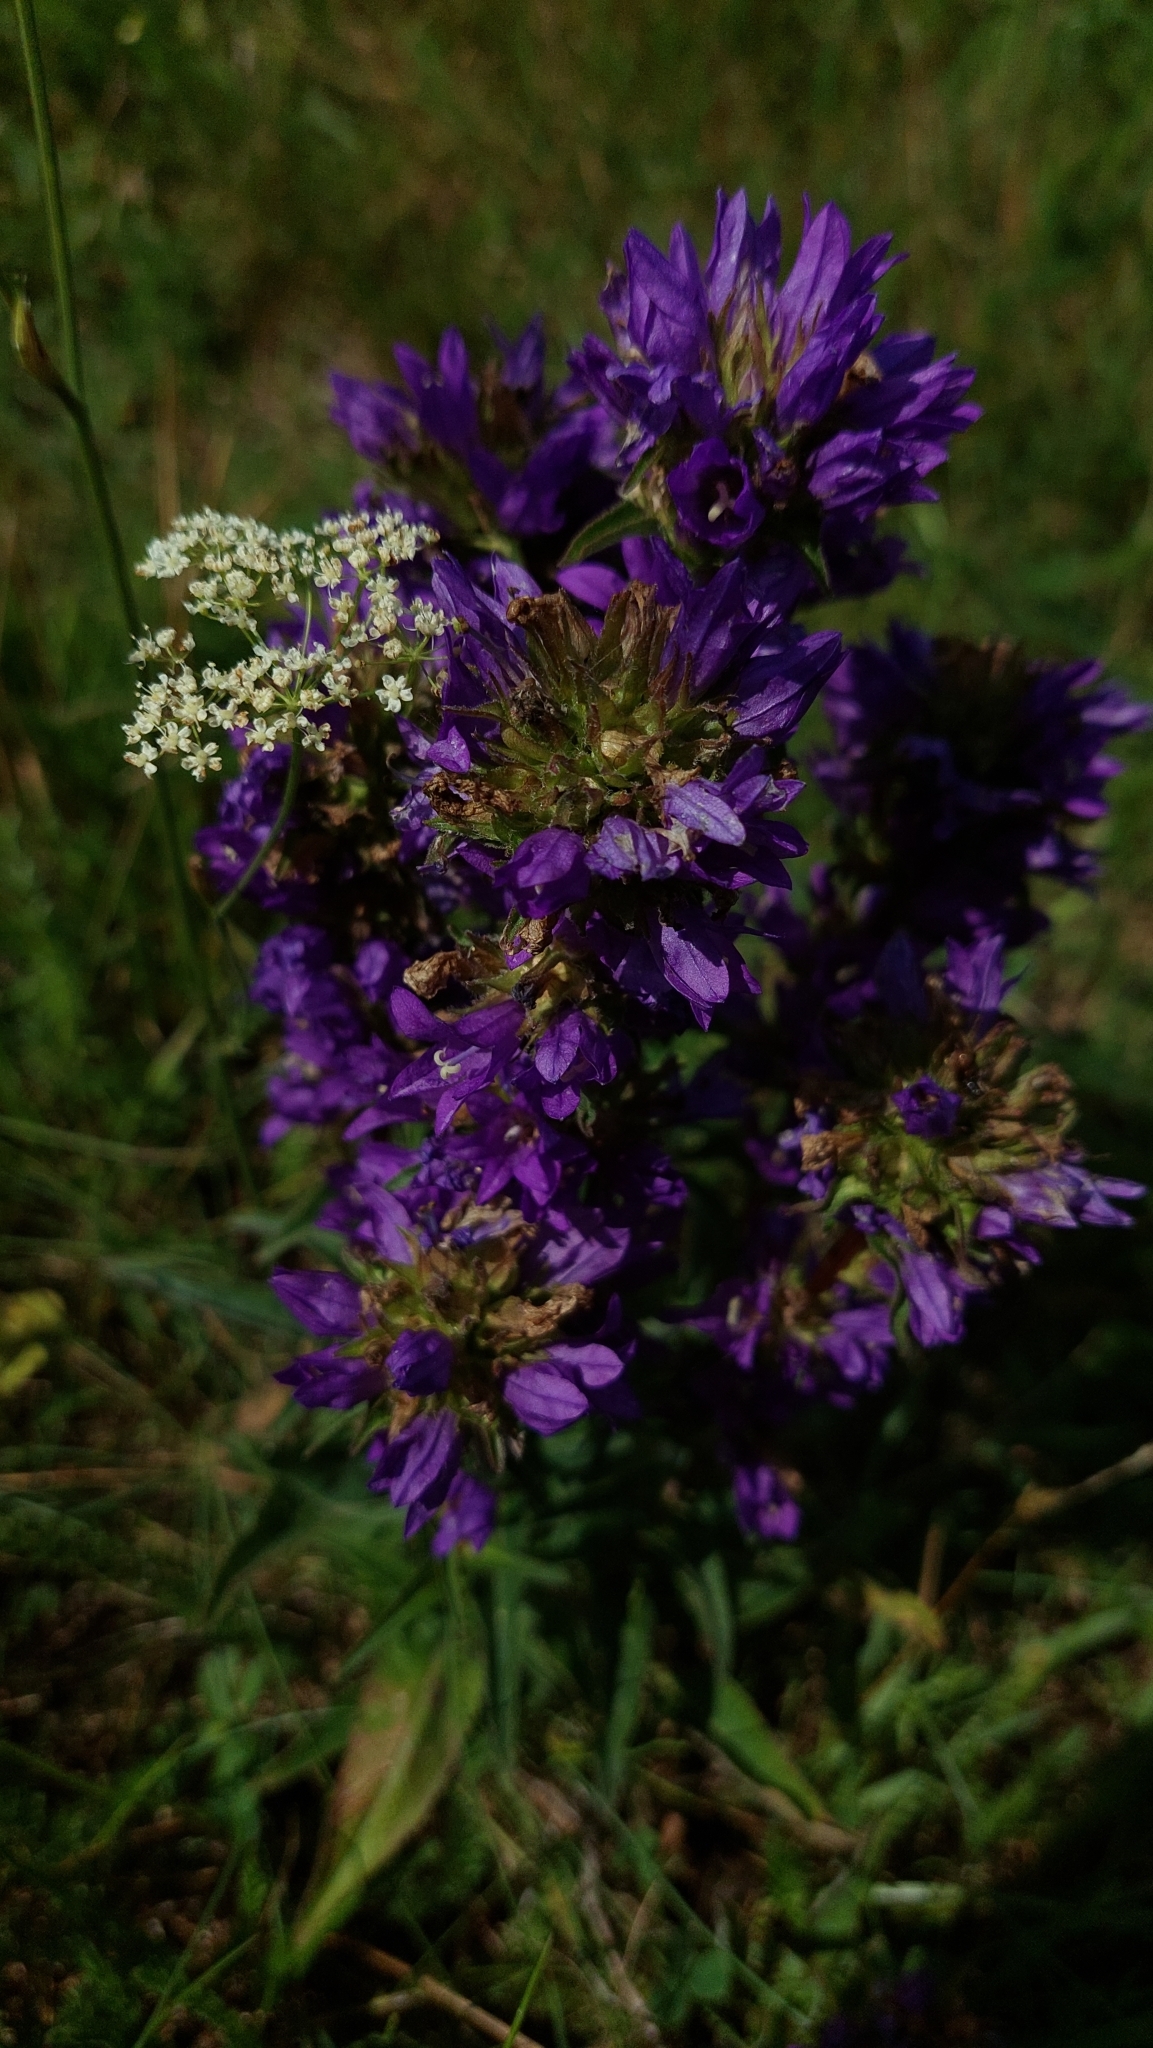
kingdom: Plantae
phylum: Tracheophyta
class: Magnoliopsida
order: Asterales
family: Campanulaceae
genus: Campanula
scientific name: Campanula glomerata
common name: Clustered bellflower
